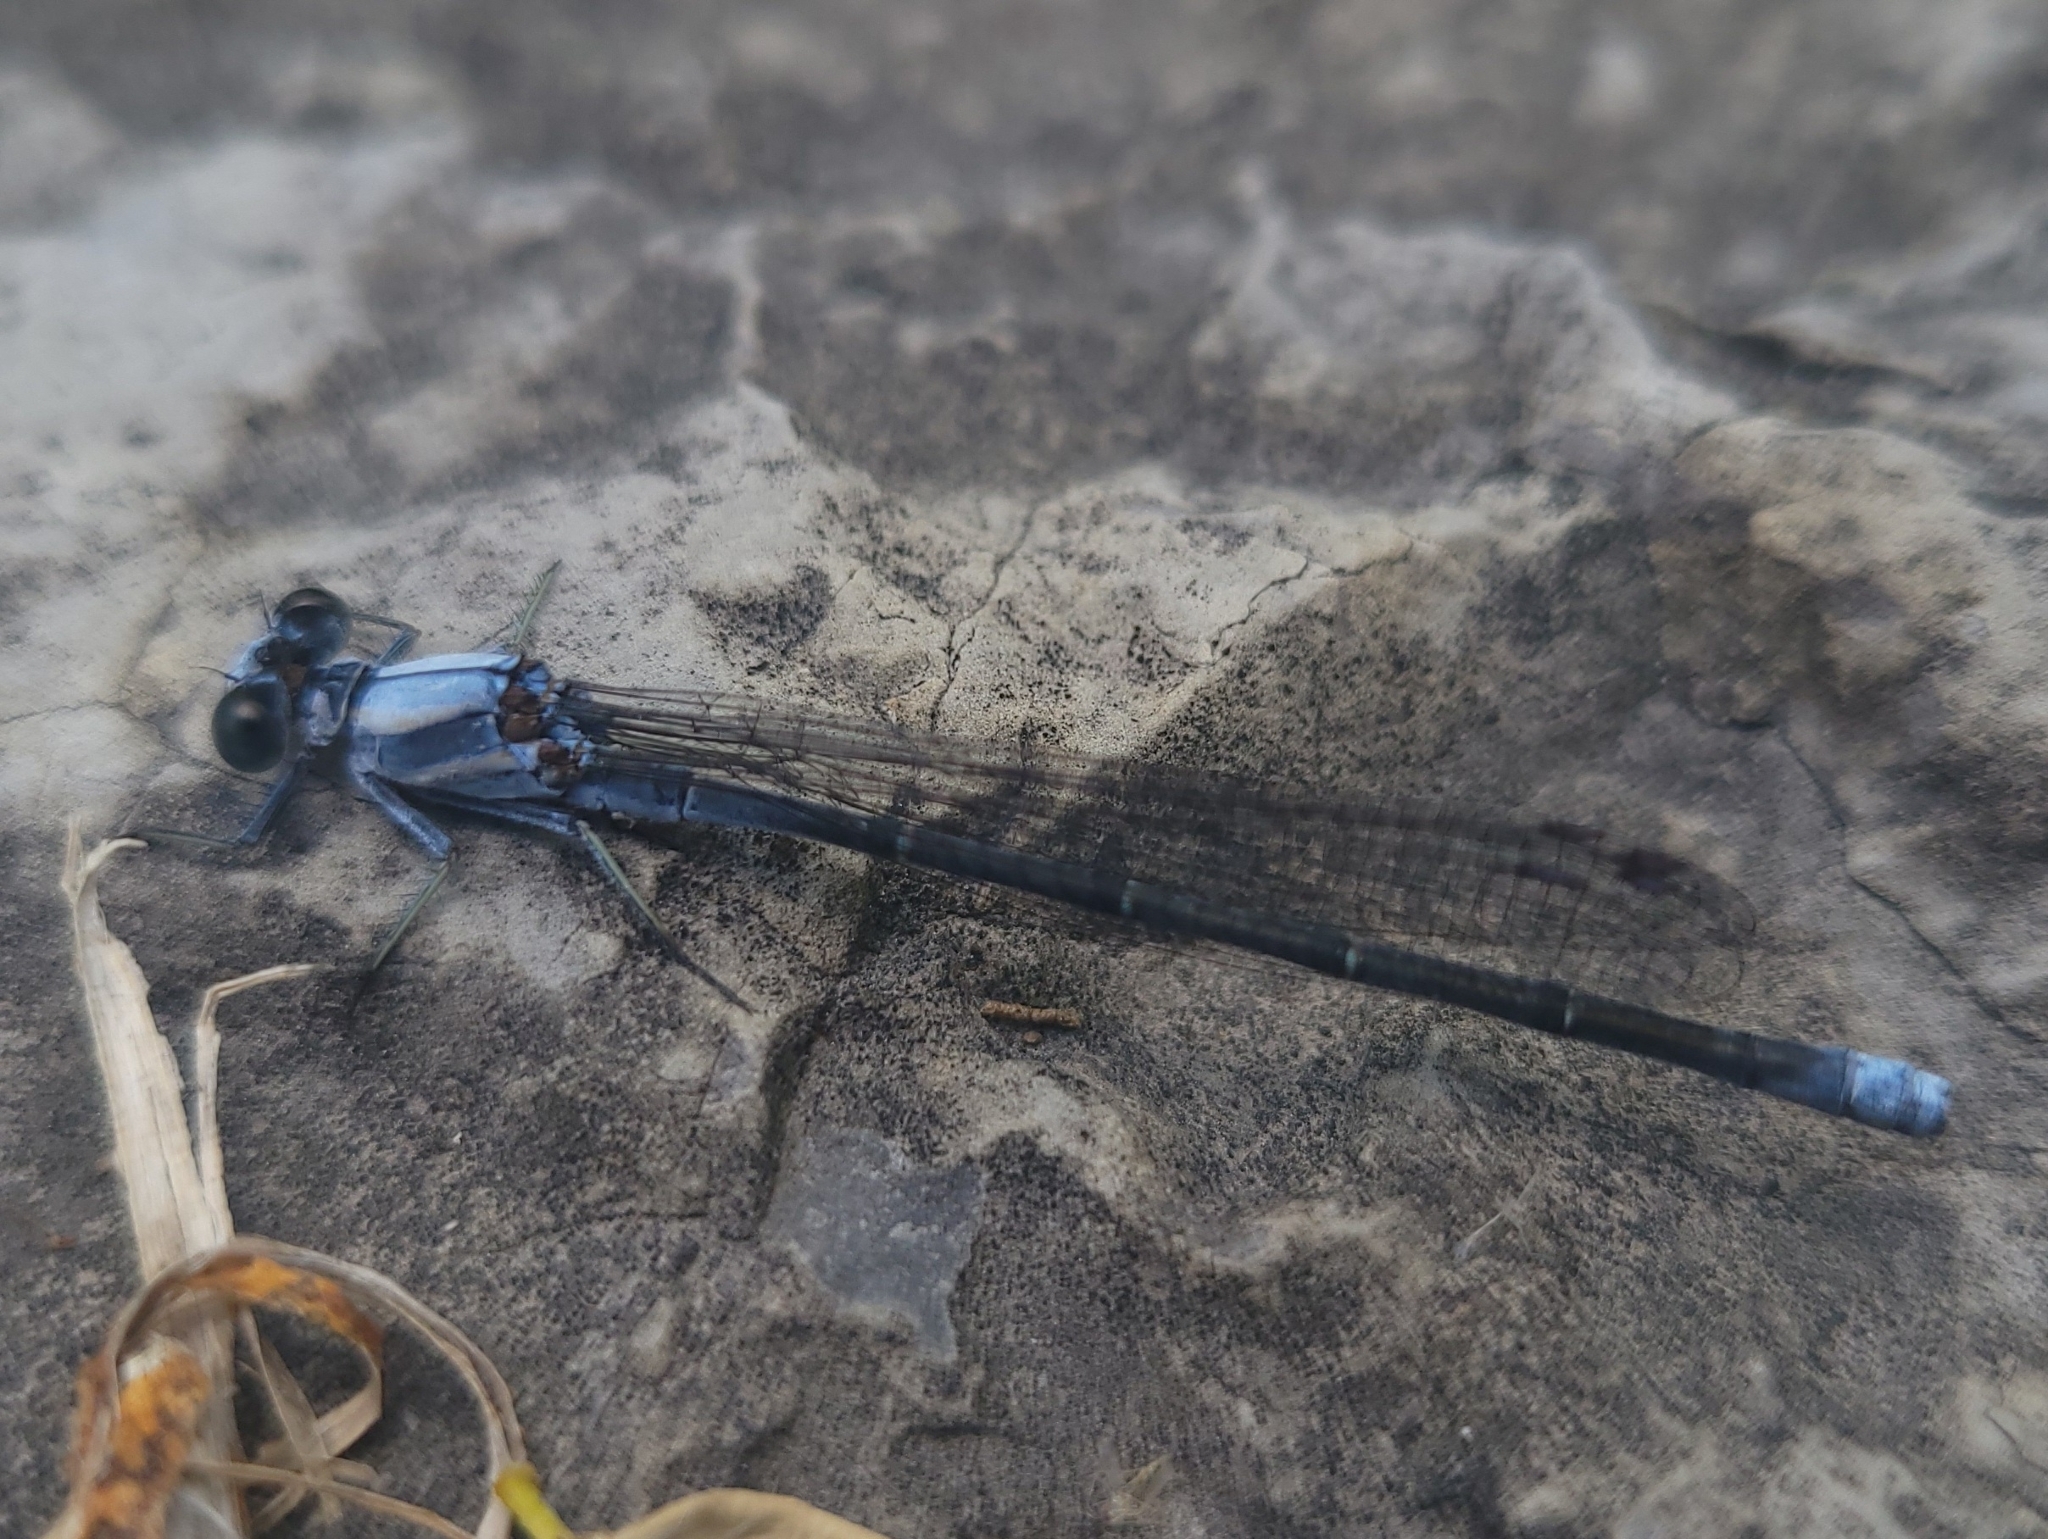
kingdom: Animalia
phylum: Arthropoda
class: Insecta
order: Odonata
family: Coenagrionidae
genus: Argia
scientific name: Argia moesta
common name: Powdered dancer
